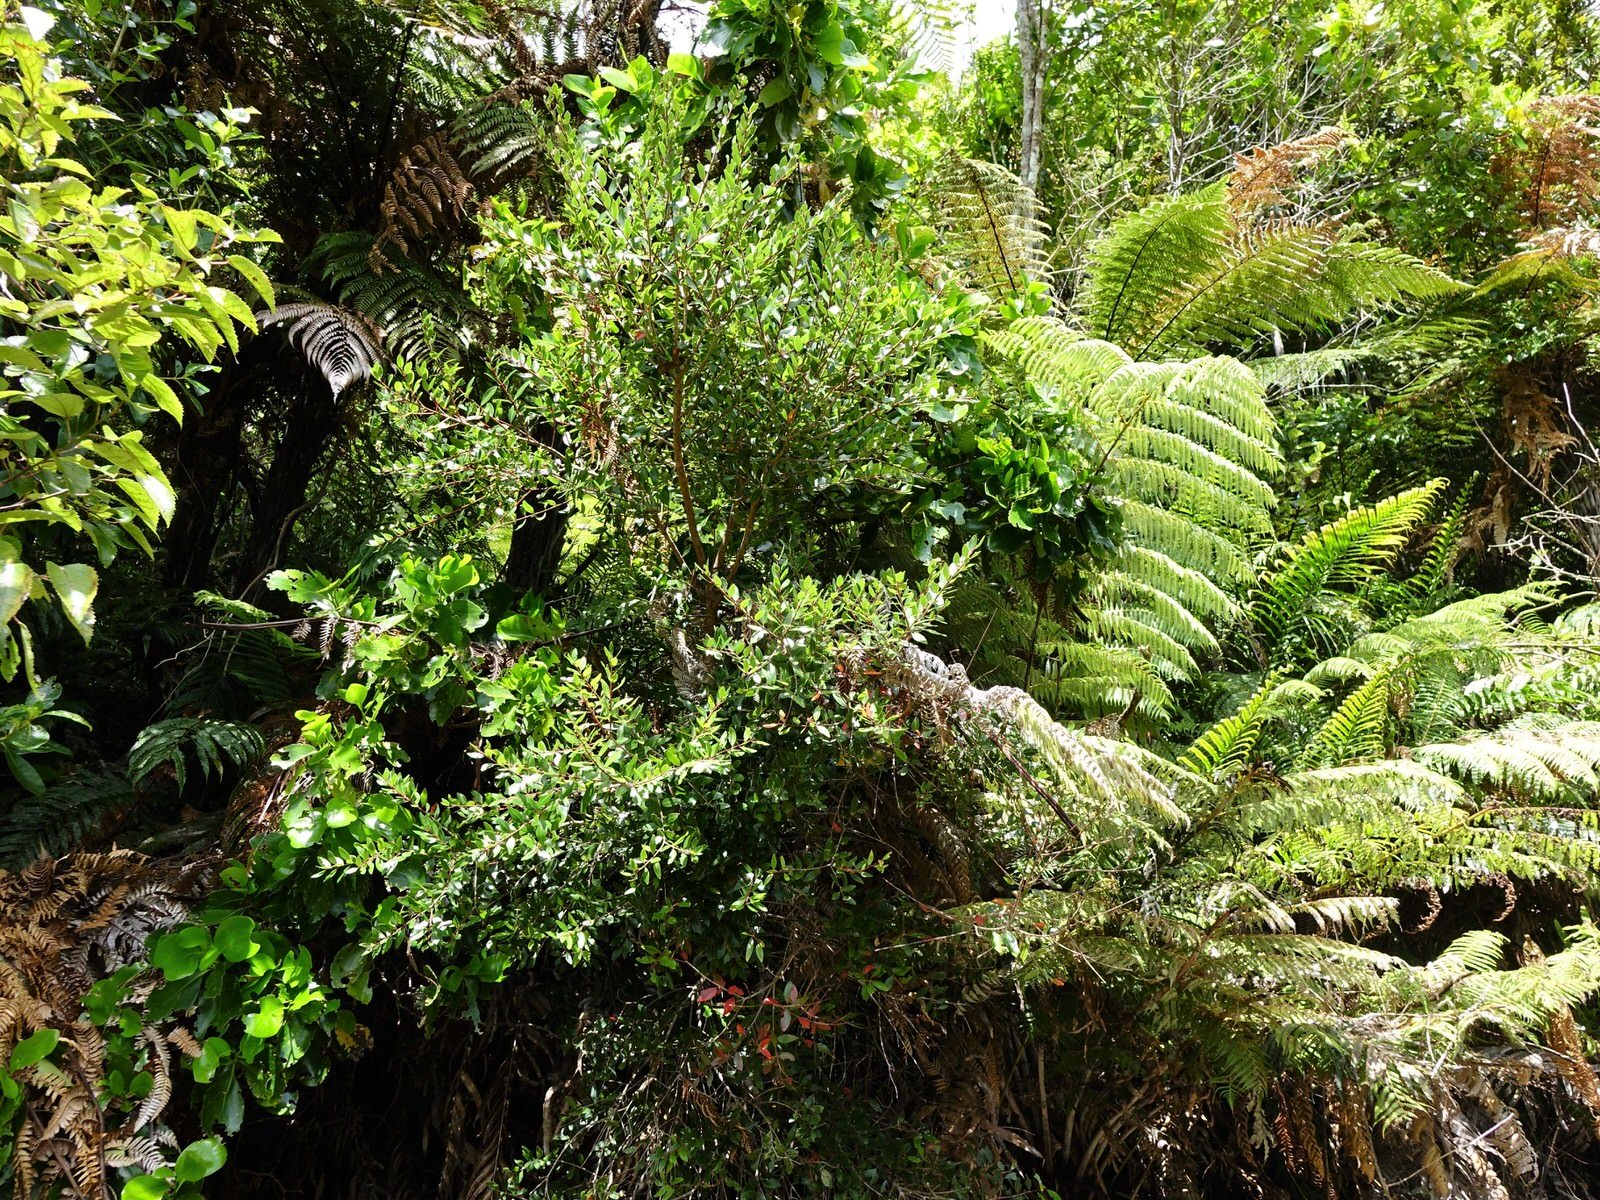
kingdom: Plantae
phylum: Tracheophyta
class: Magnoliopsida
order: Myrtales
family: Myrtaceae
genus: Metrosideros
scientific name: Metrosideros robusta
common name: Northern rata
